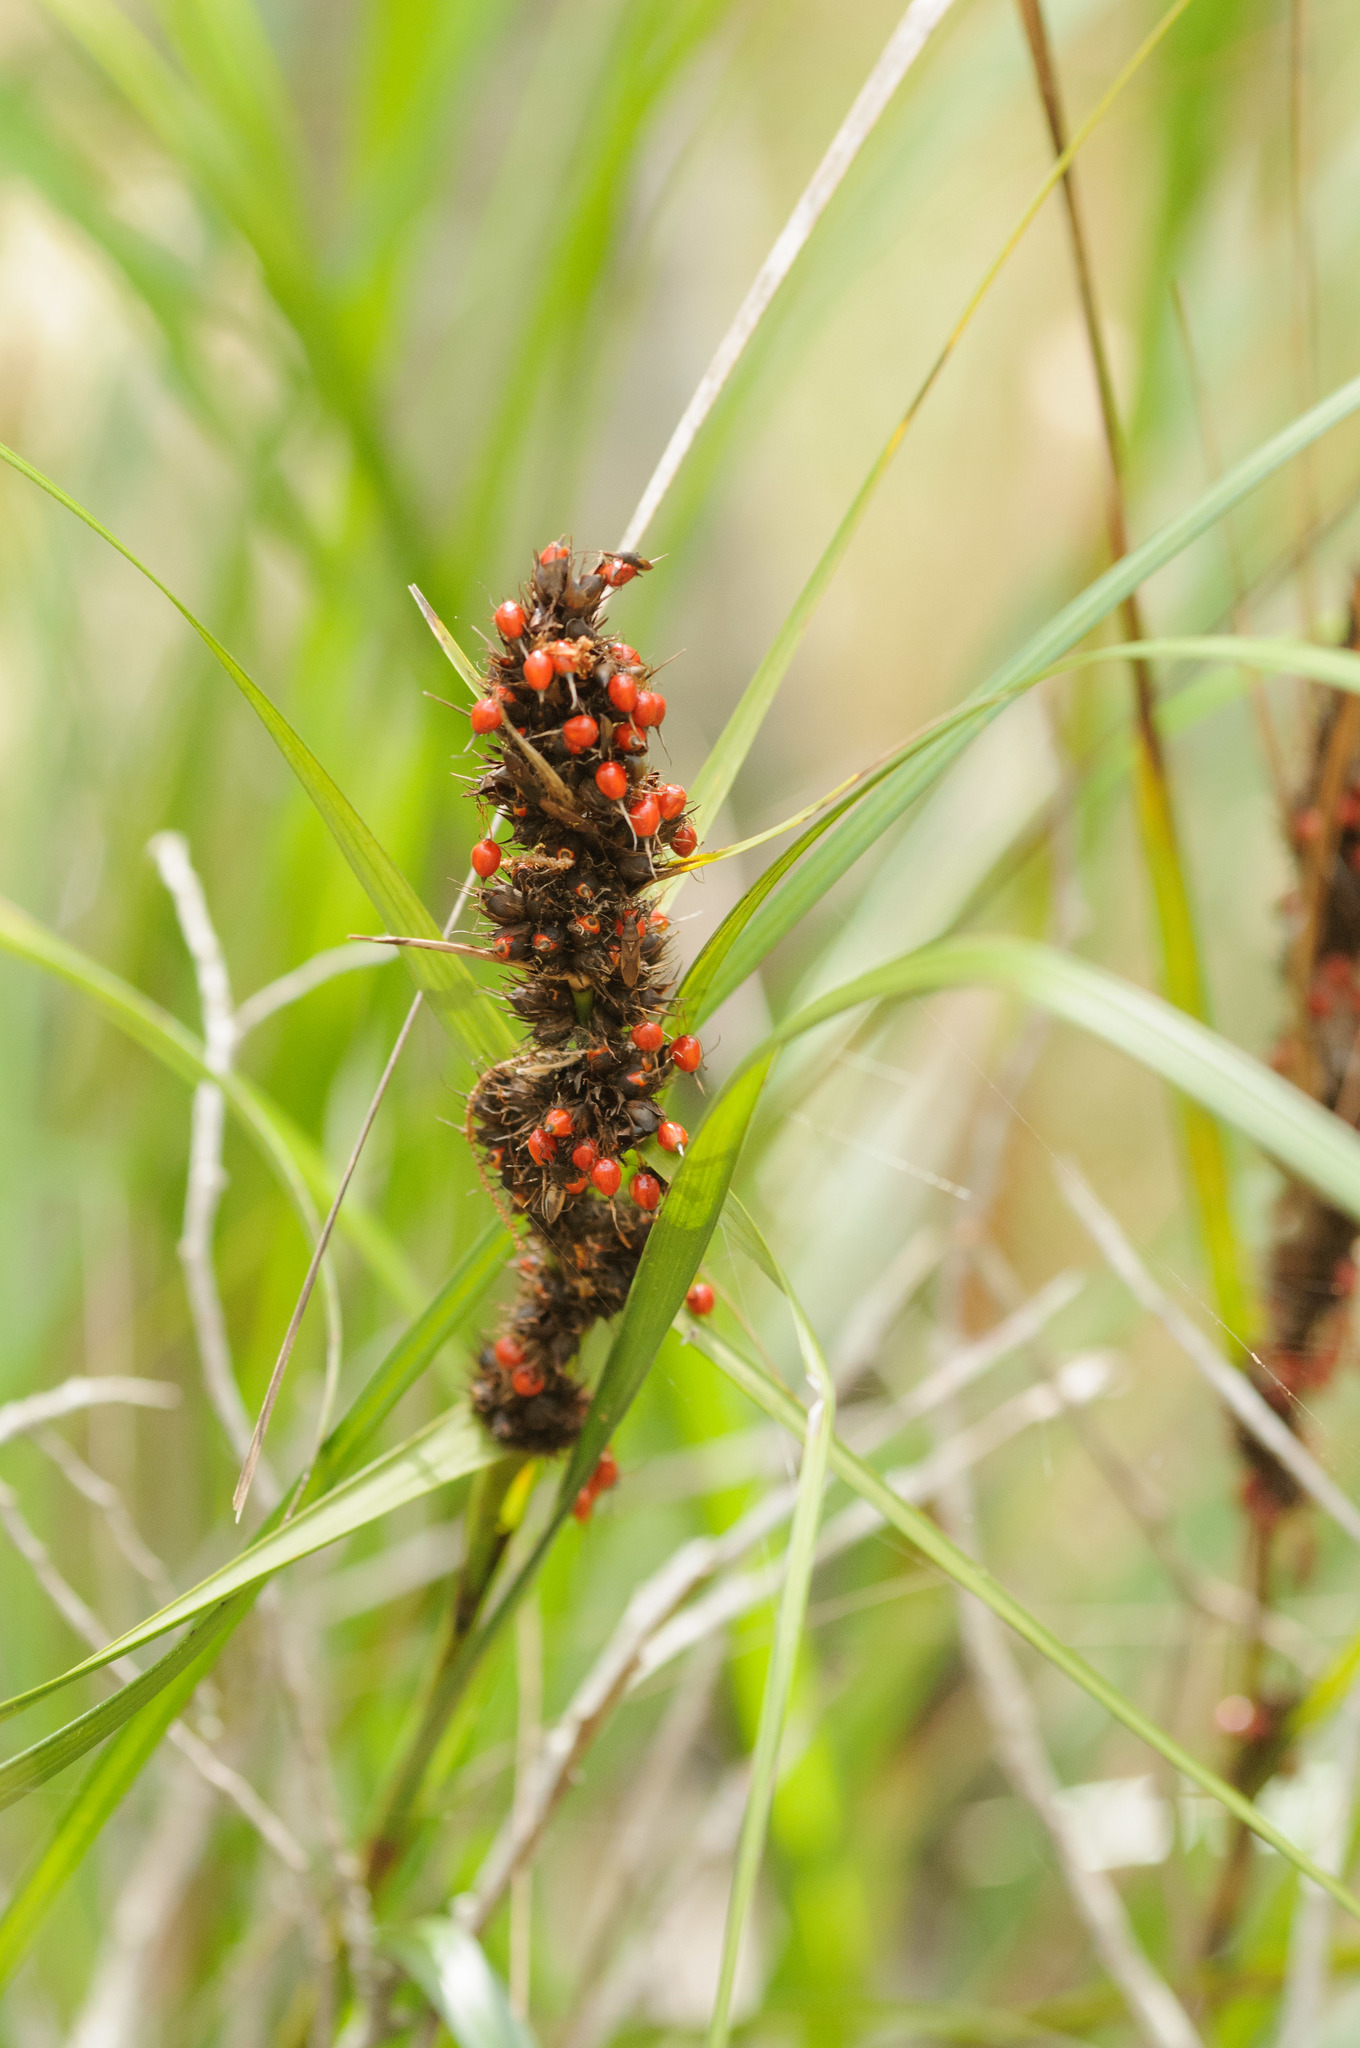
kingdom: Plantae
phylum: Tracheophyta
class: Liliopsida
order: Poales
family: Cyperaceae
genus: Gahnia
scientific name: Gahnia aspera
